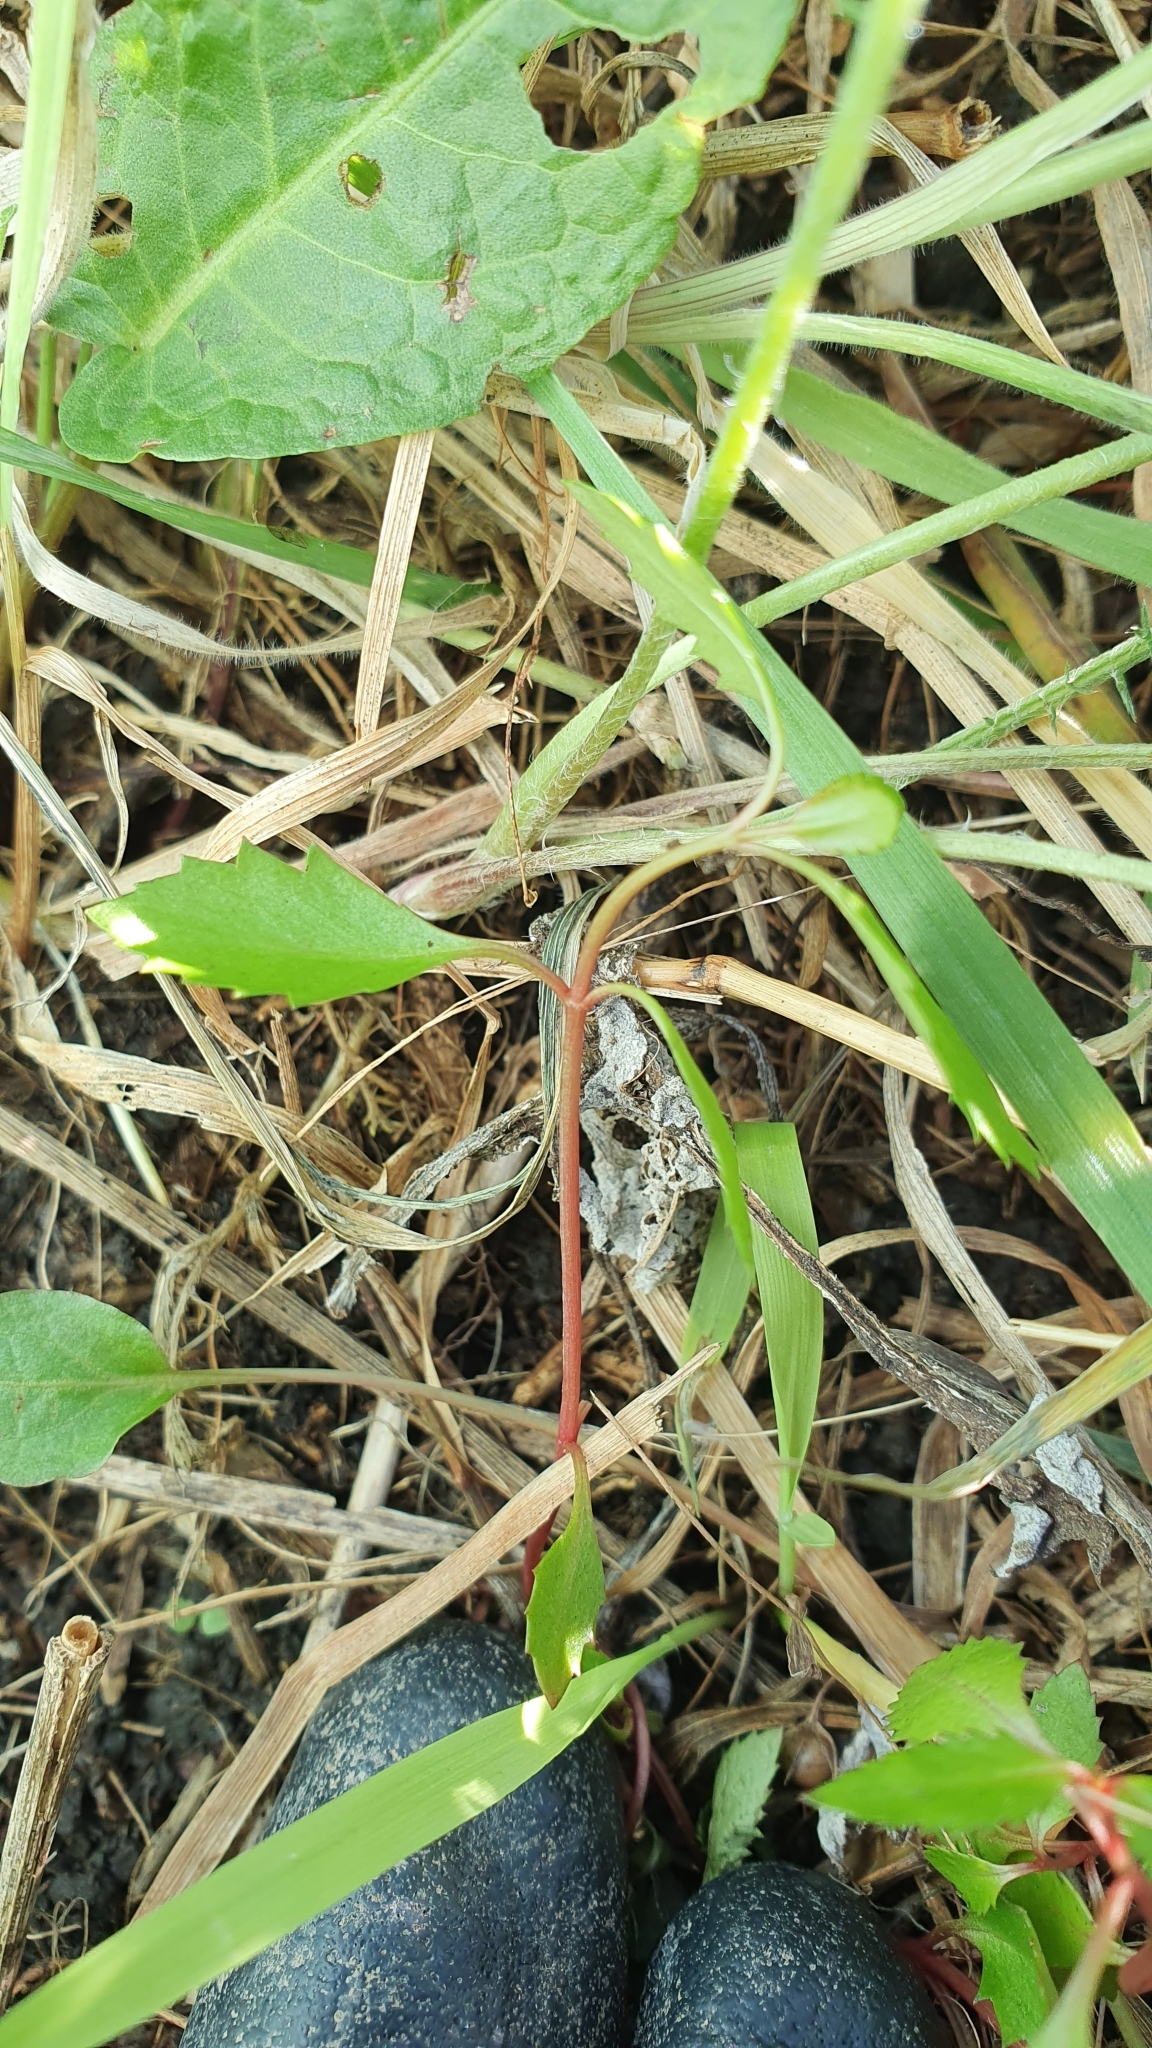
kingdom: Plantae
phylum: Tracheophyta
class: Magnoliopsida
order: Saxifragales
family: Haloragaceae
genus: Haloragis
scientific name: Haloragis erecta
